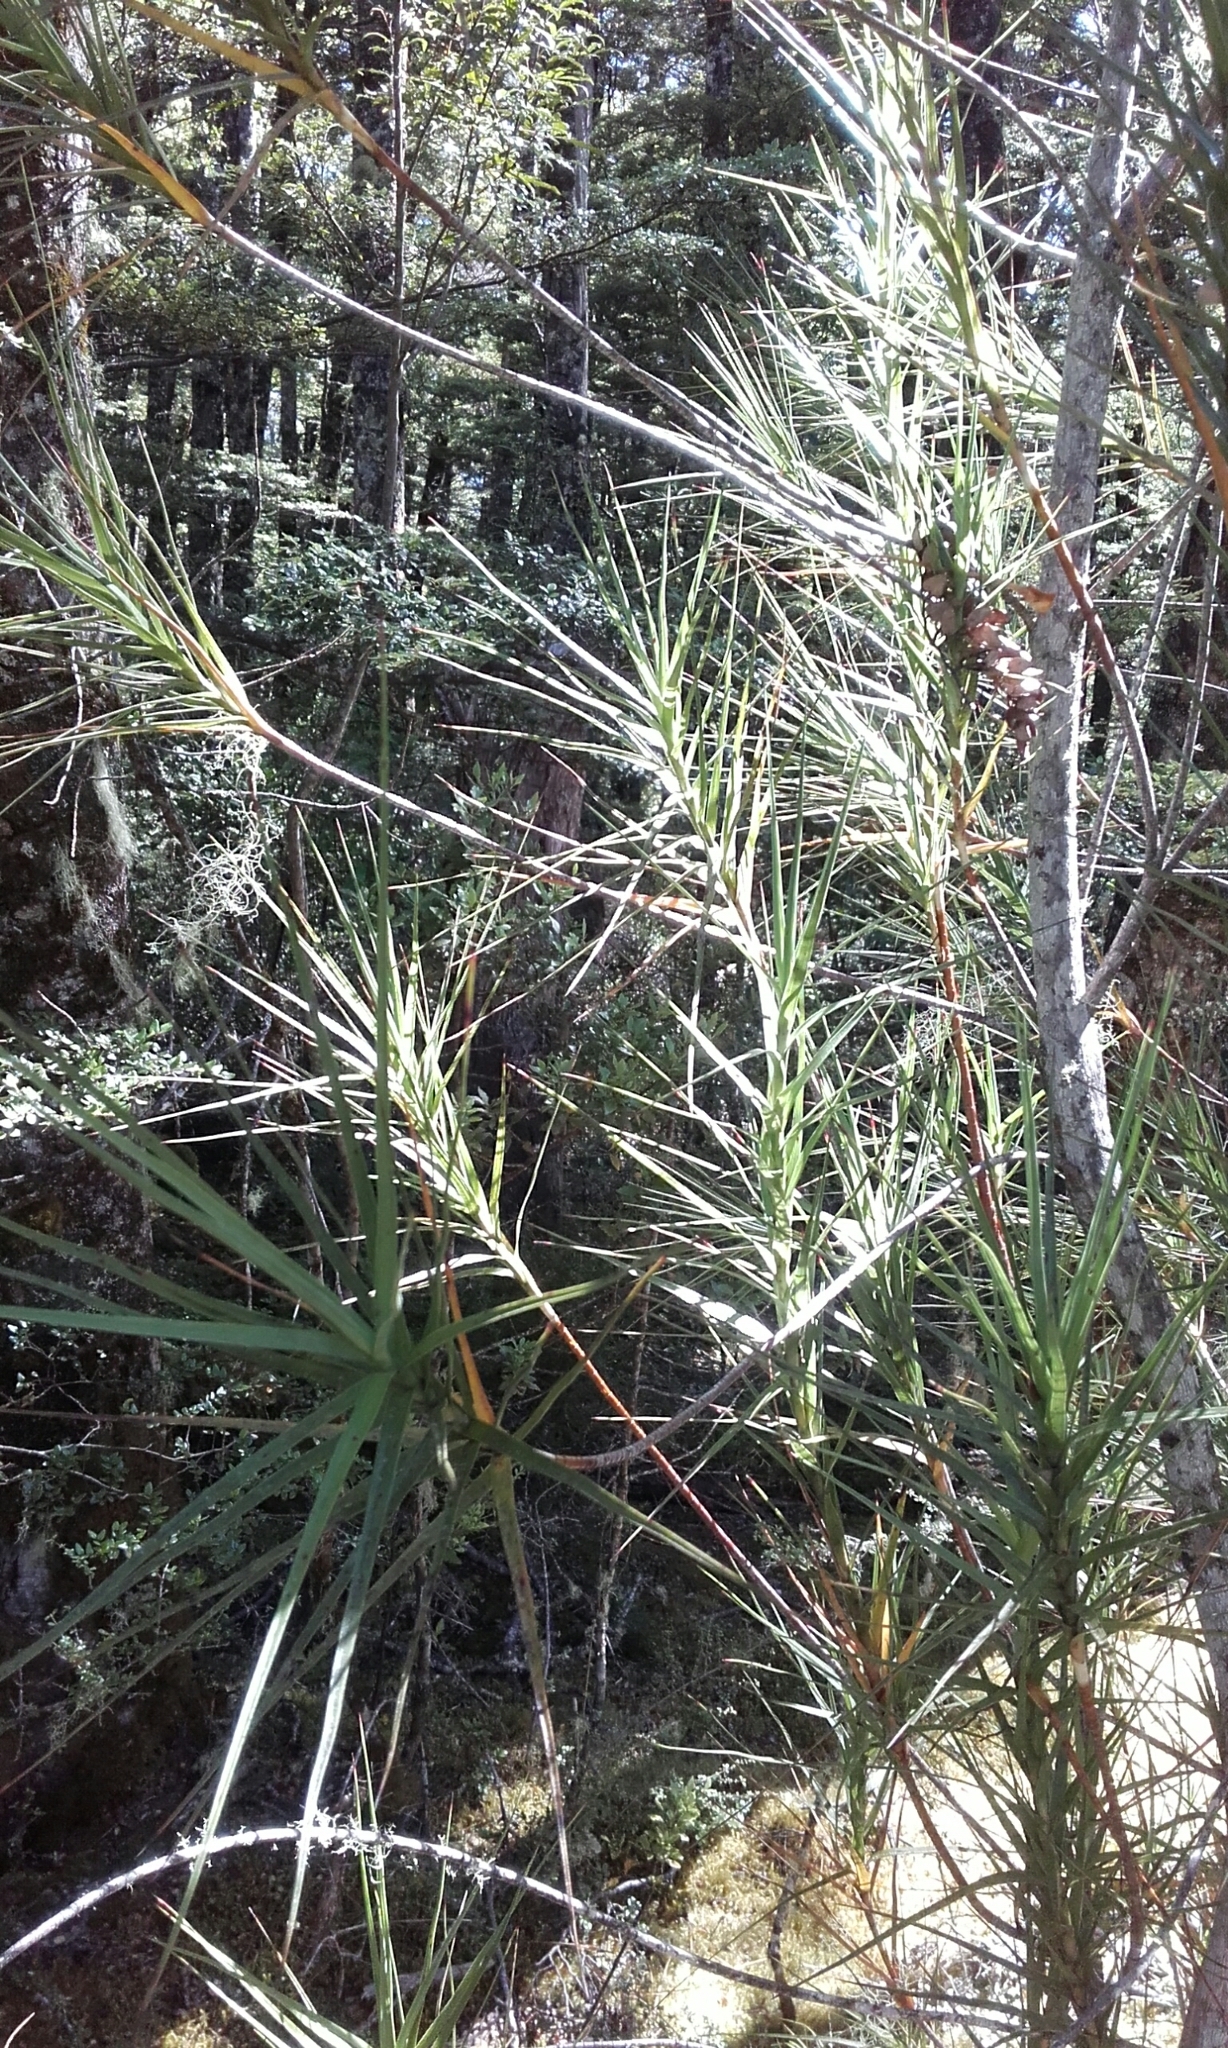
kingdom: Plantae
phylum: Tracheophyta
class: Magnoliopsida
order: Ericales
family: Ericaceae
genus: Dracophyllum
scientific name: Dracophyllum longifolium
